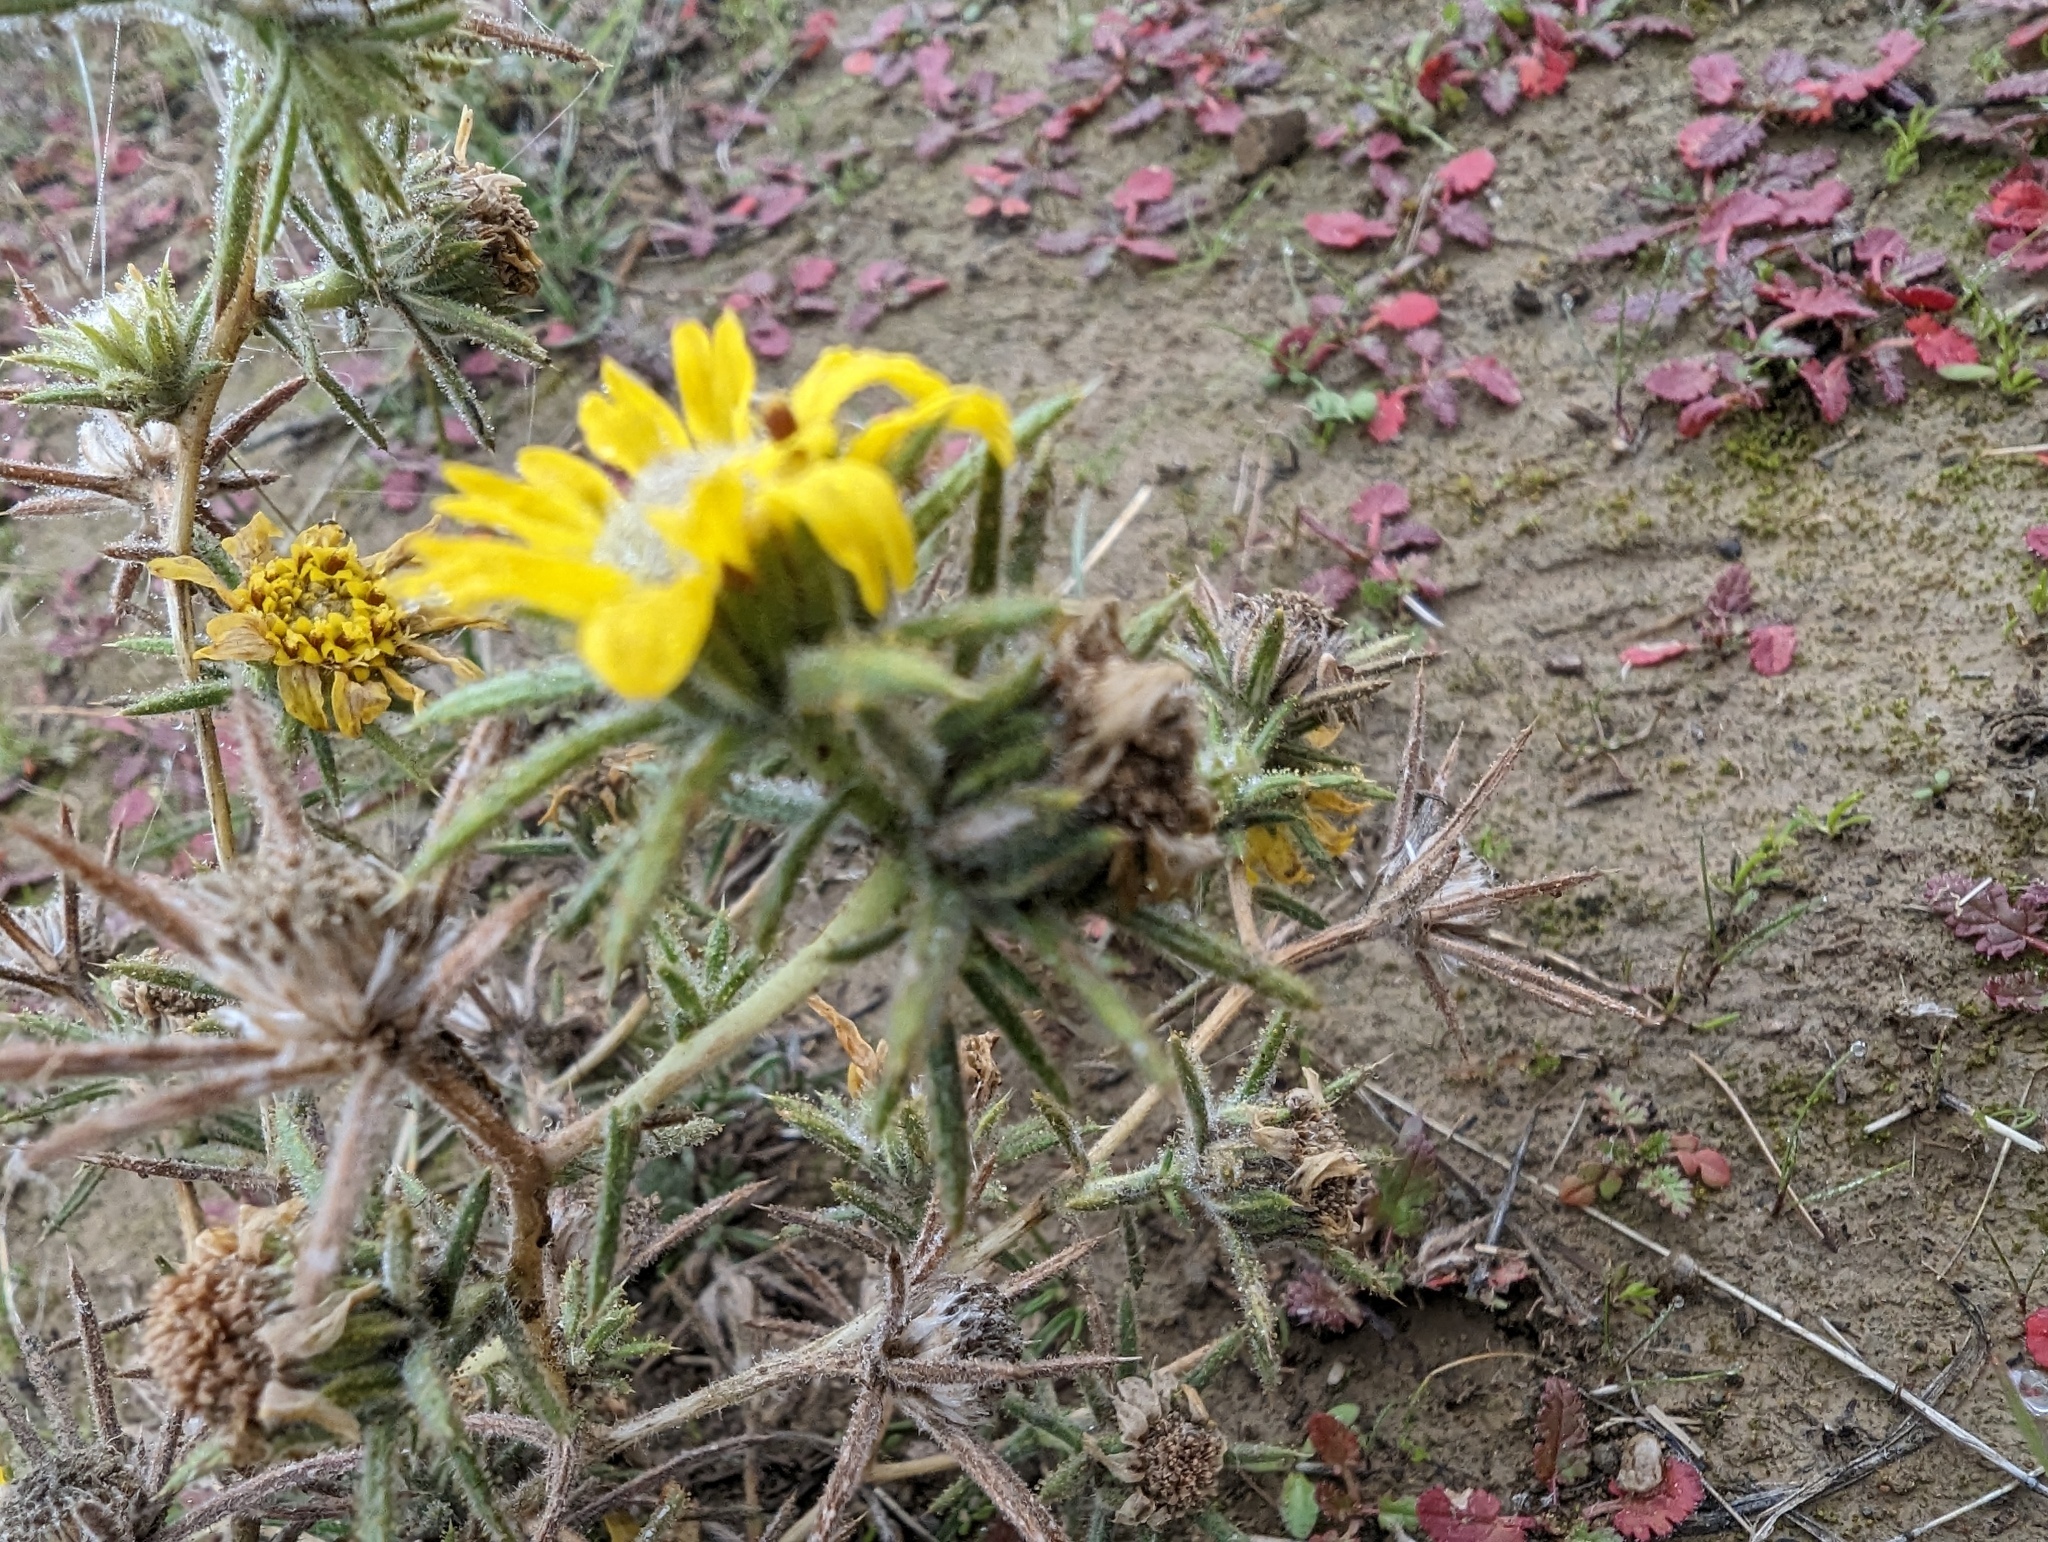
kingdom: Plantae
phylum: Tracheophyta
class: Magnoliopsida
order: Asterales
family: Asteraceae
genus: Centromadia
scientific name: Centromadia fitchii
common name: Fitch's spikeweed
